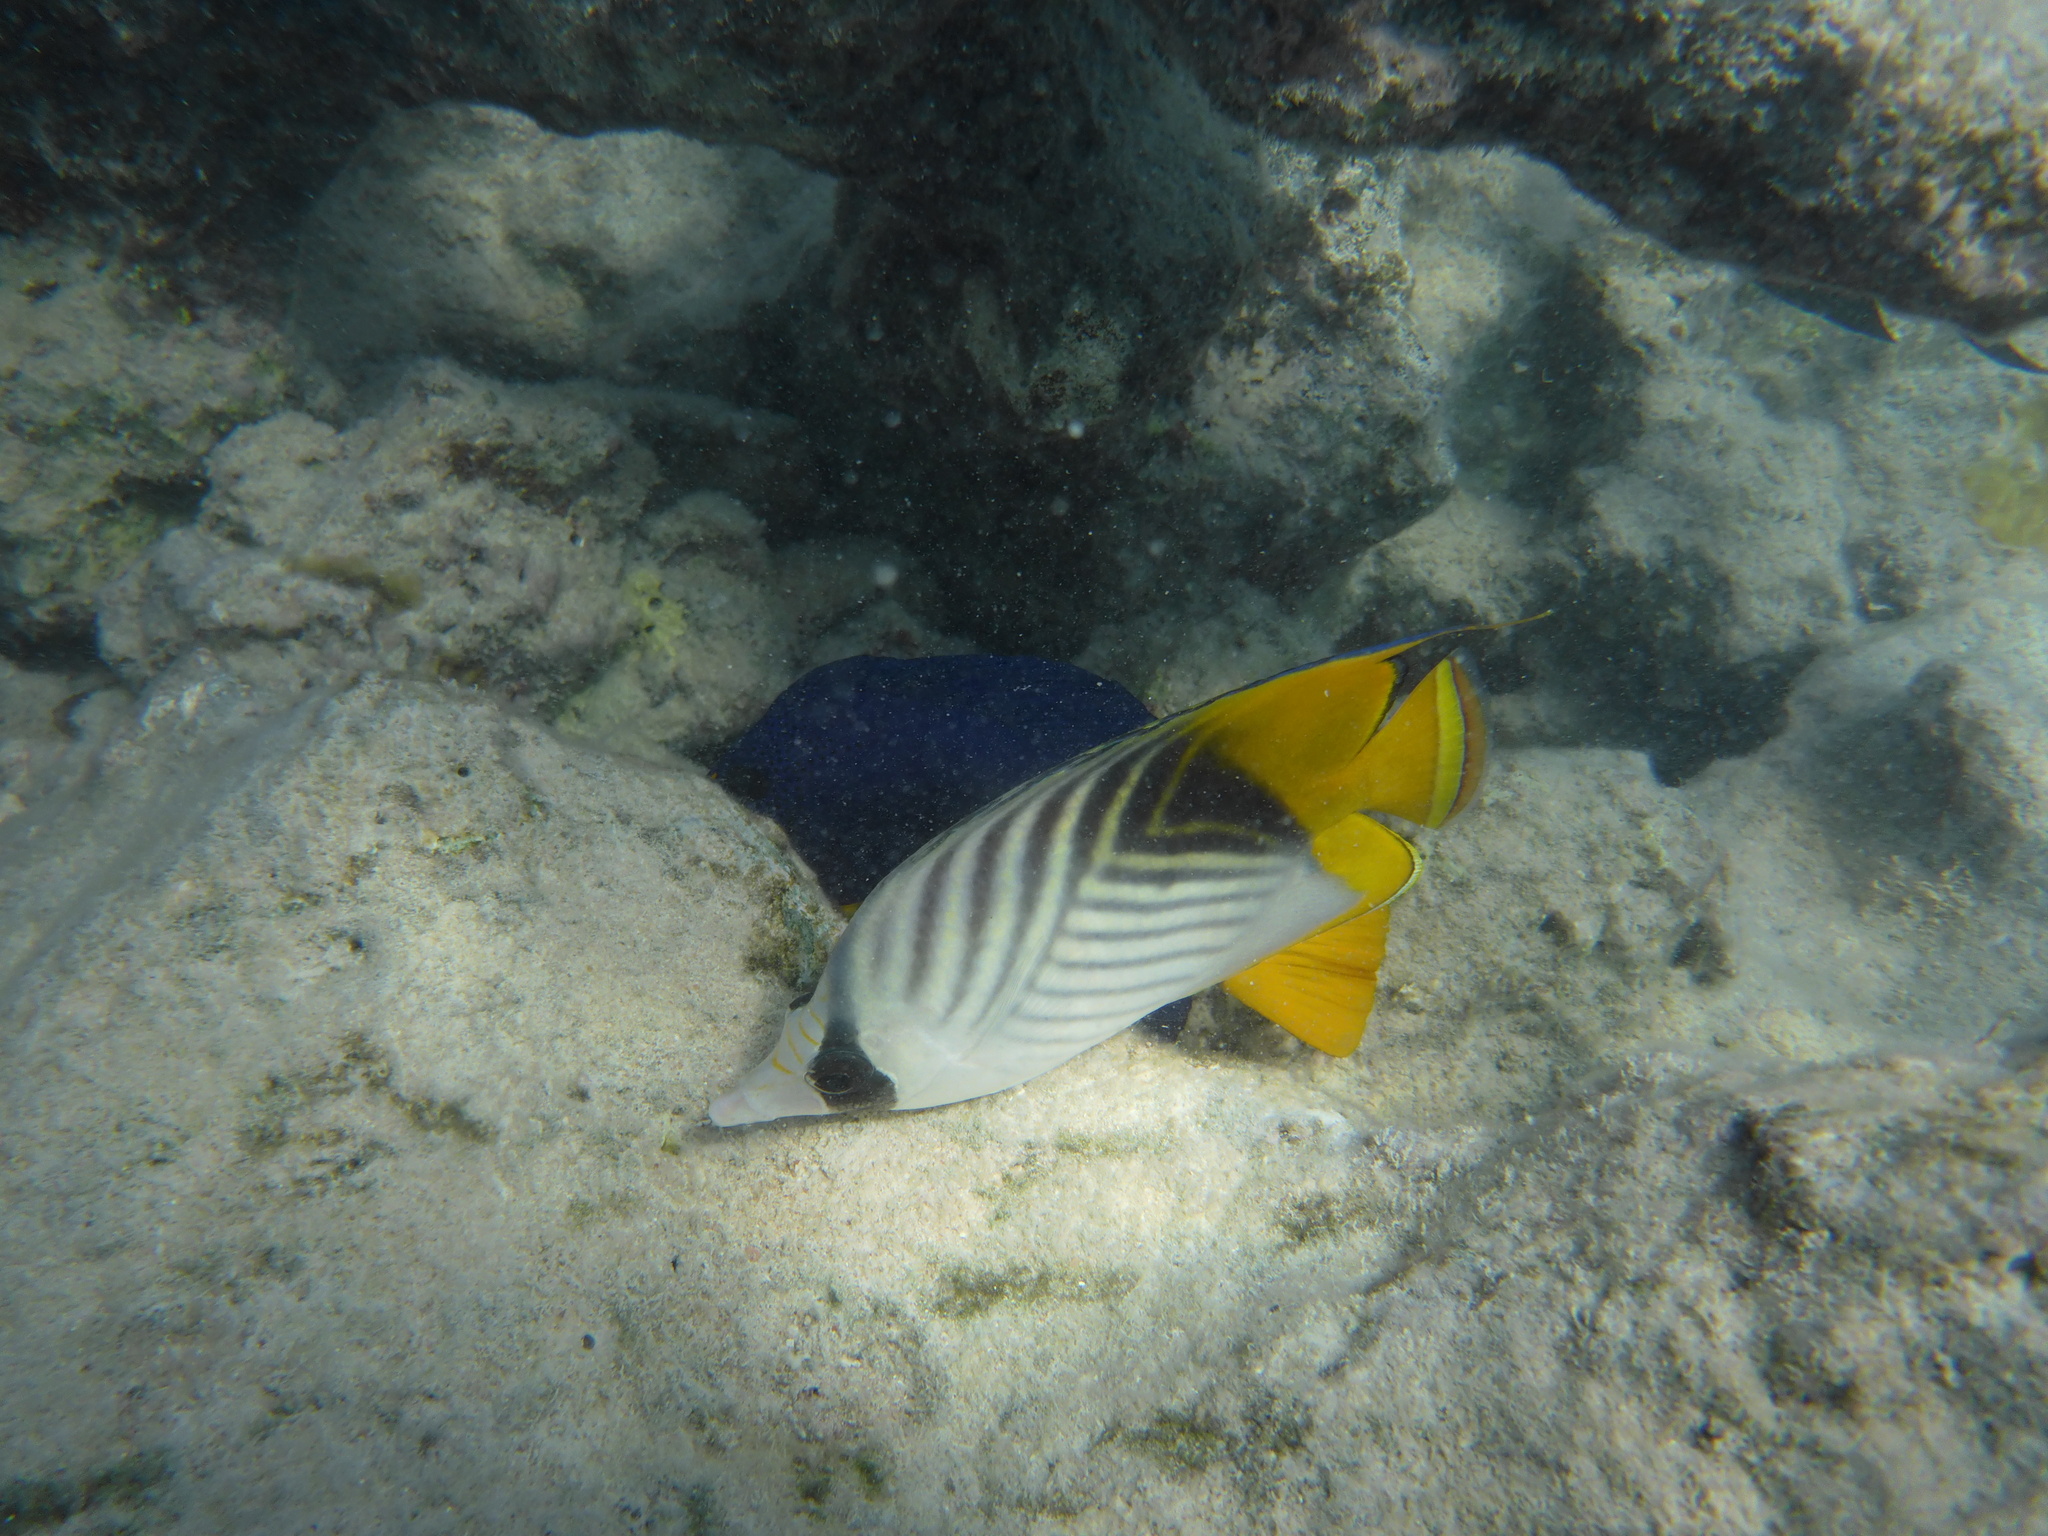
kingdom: Animalia
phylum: Chordata
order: Perciformes
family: Chaetodontidae
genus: Chaetodon
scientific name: Chaetodon auriga
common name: Threadfin butterflyfish
